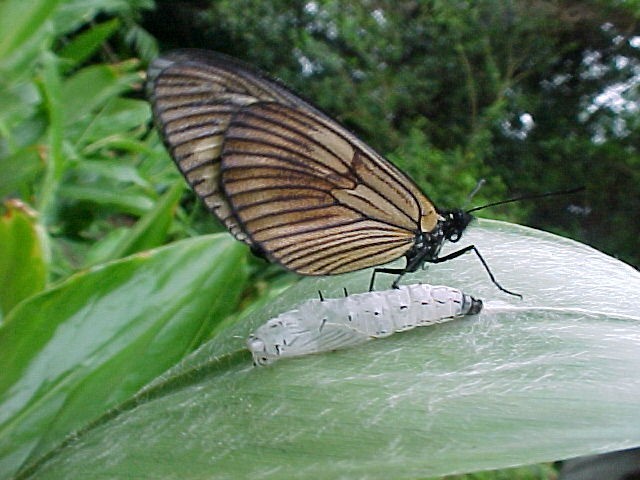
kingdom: Animalia
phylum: Arthropoda
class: Insecta
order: Lepidoptera
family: Nymphalidae
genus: Actinote
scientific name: Actinote anteas
